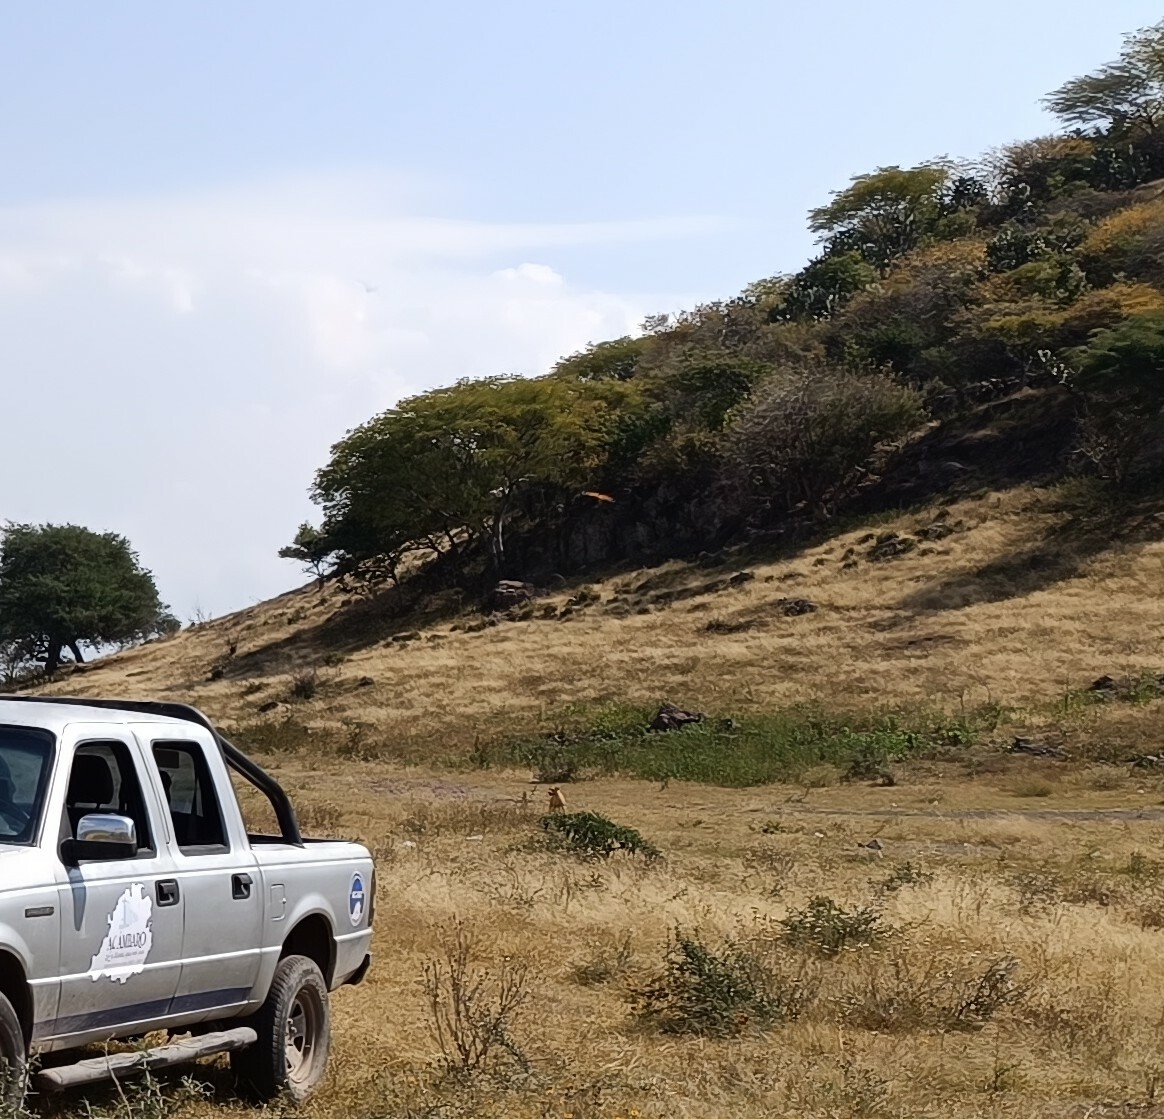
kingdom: Animalia
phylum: Arthropoda
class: Insecta
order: Lepidoptera
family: Nymphalidae
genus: Danaus
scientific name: Danaus plexippus
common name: Monarch
